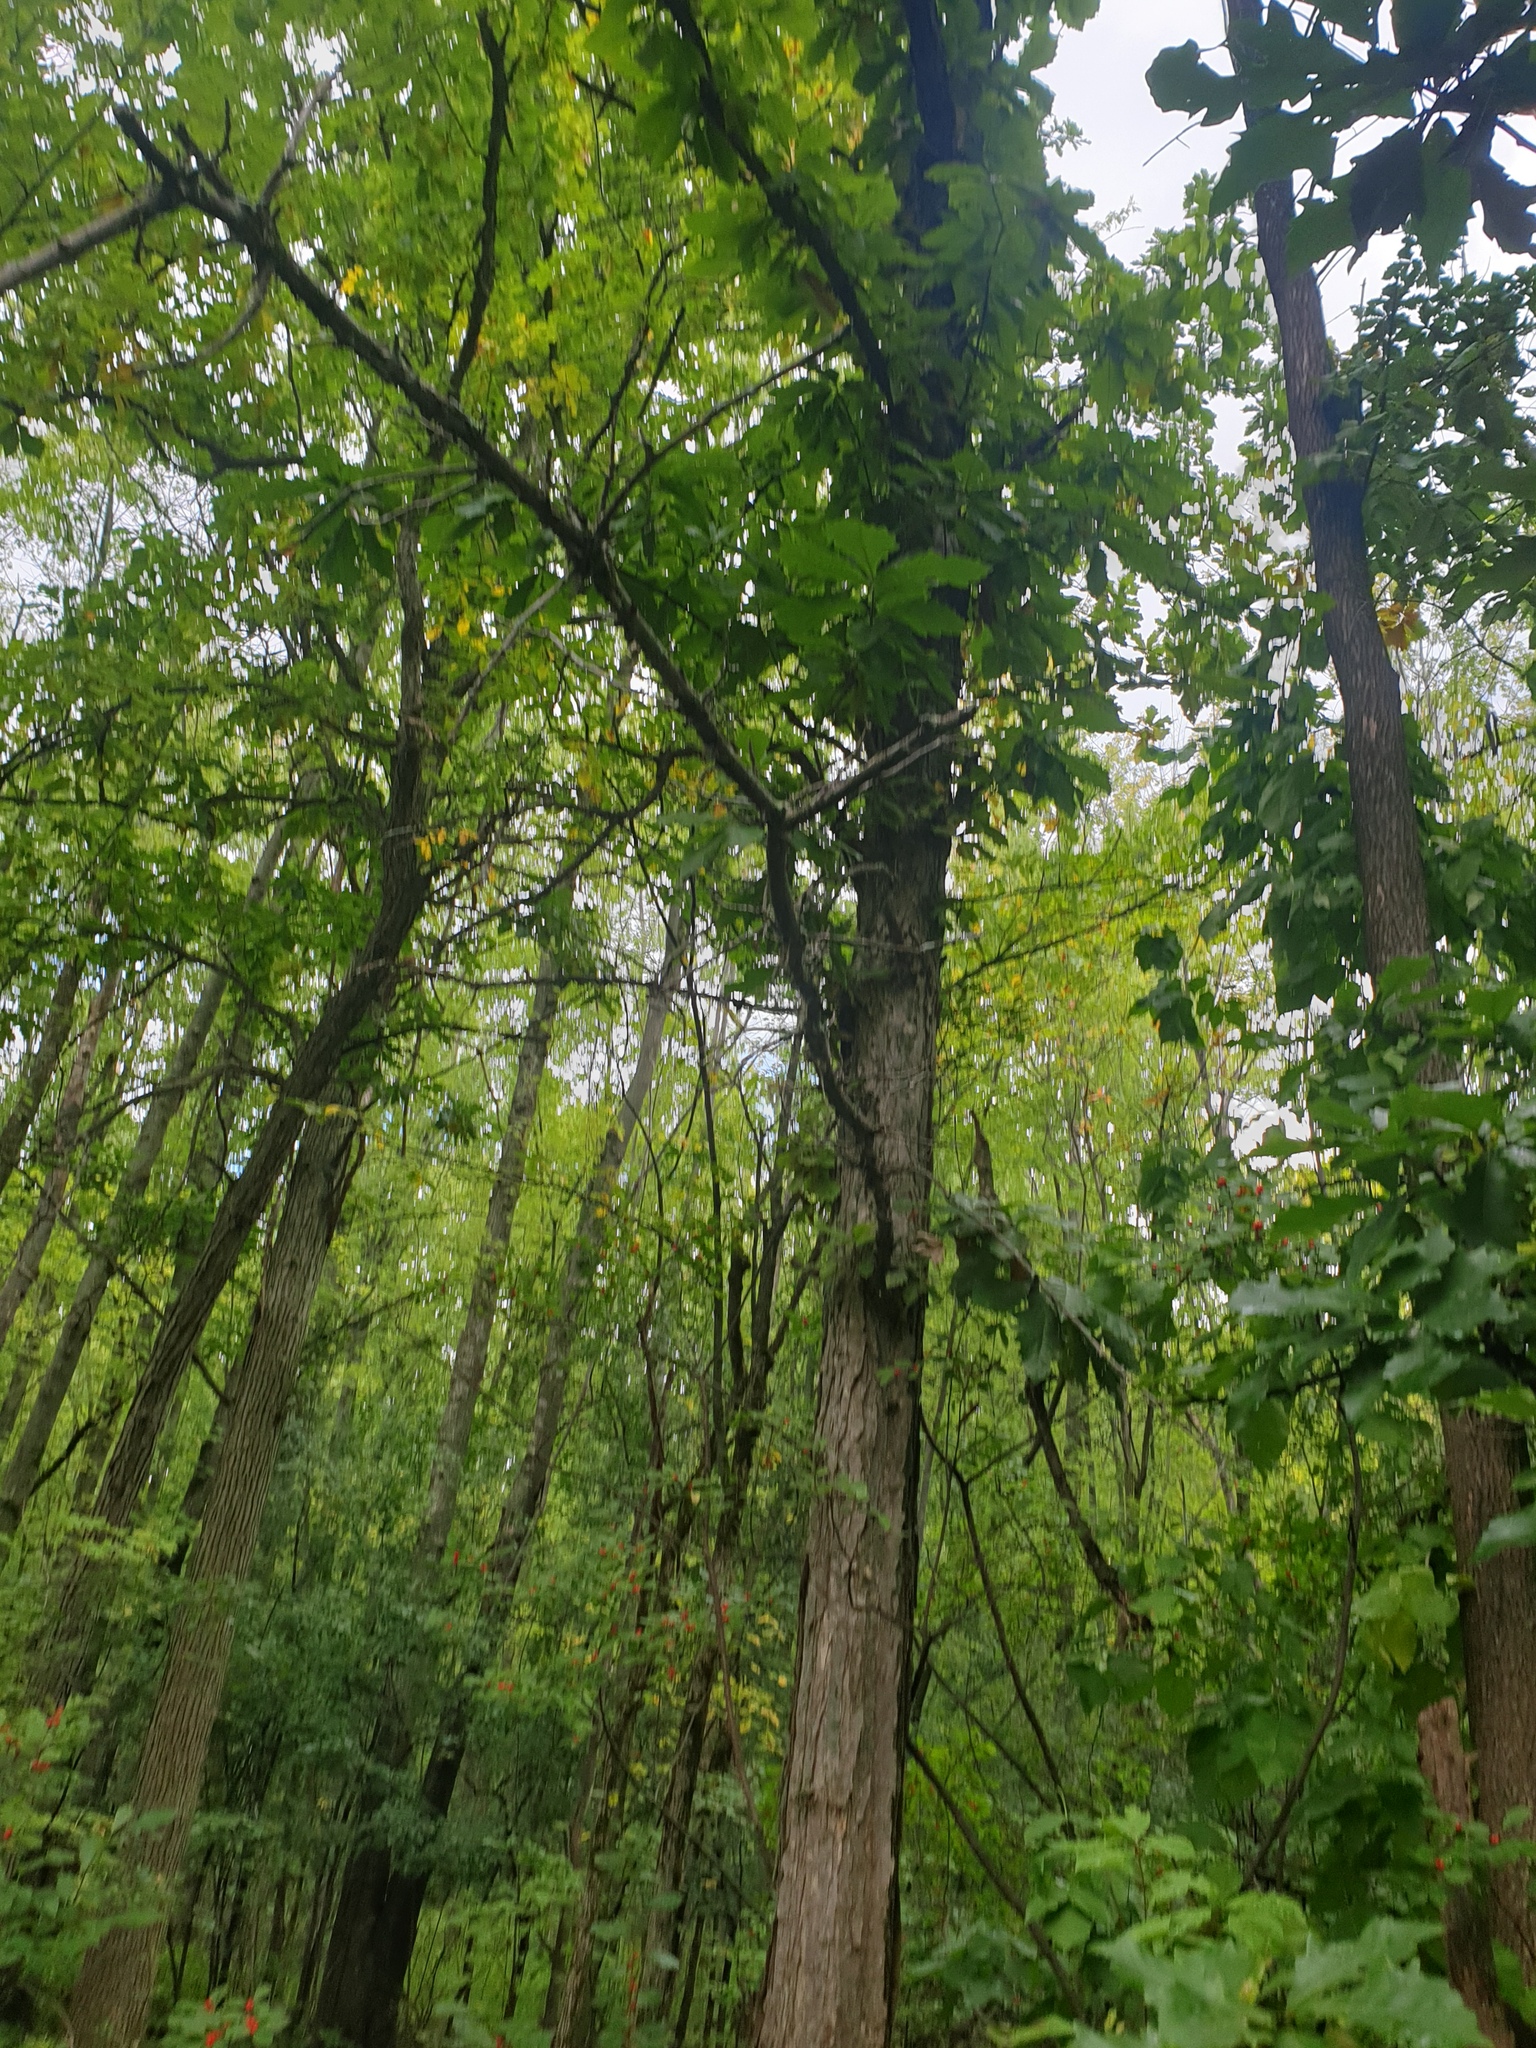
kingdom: Plantae
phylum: Tracheophyta
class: Magnoliopsida
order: Fagales
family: Fagaceae
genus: Quercus
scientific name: Quercus bicolor
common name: Swamp white oak
